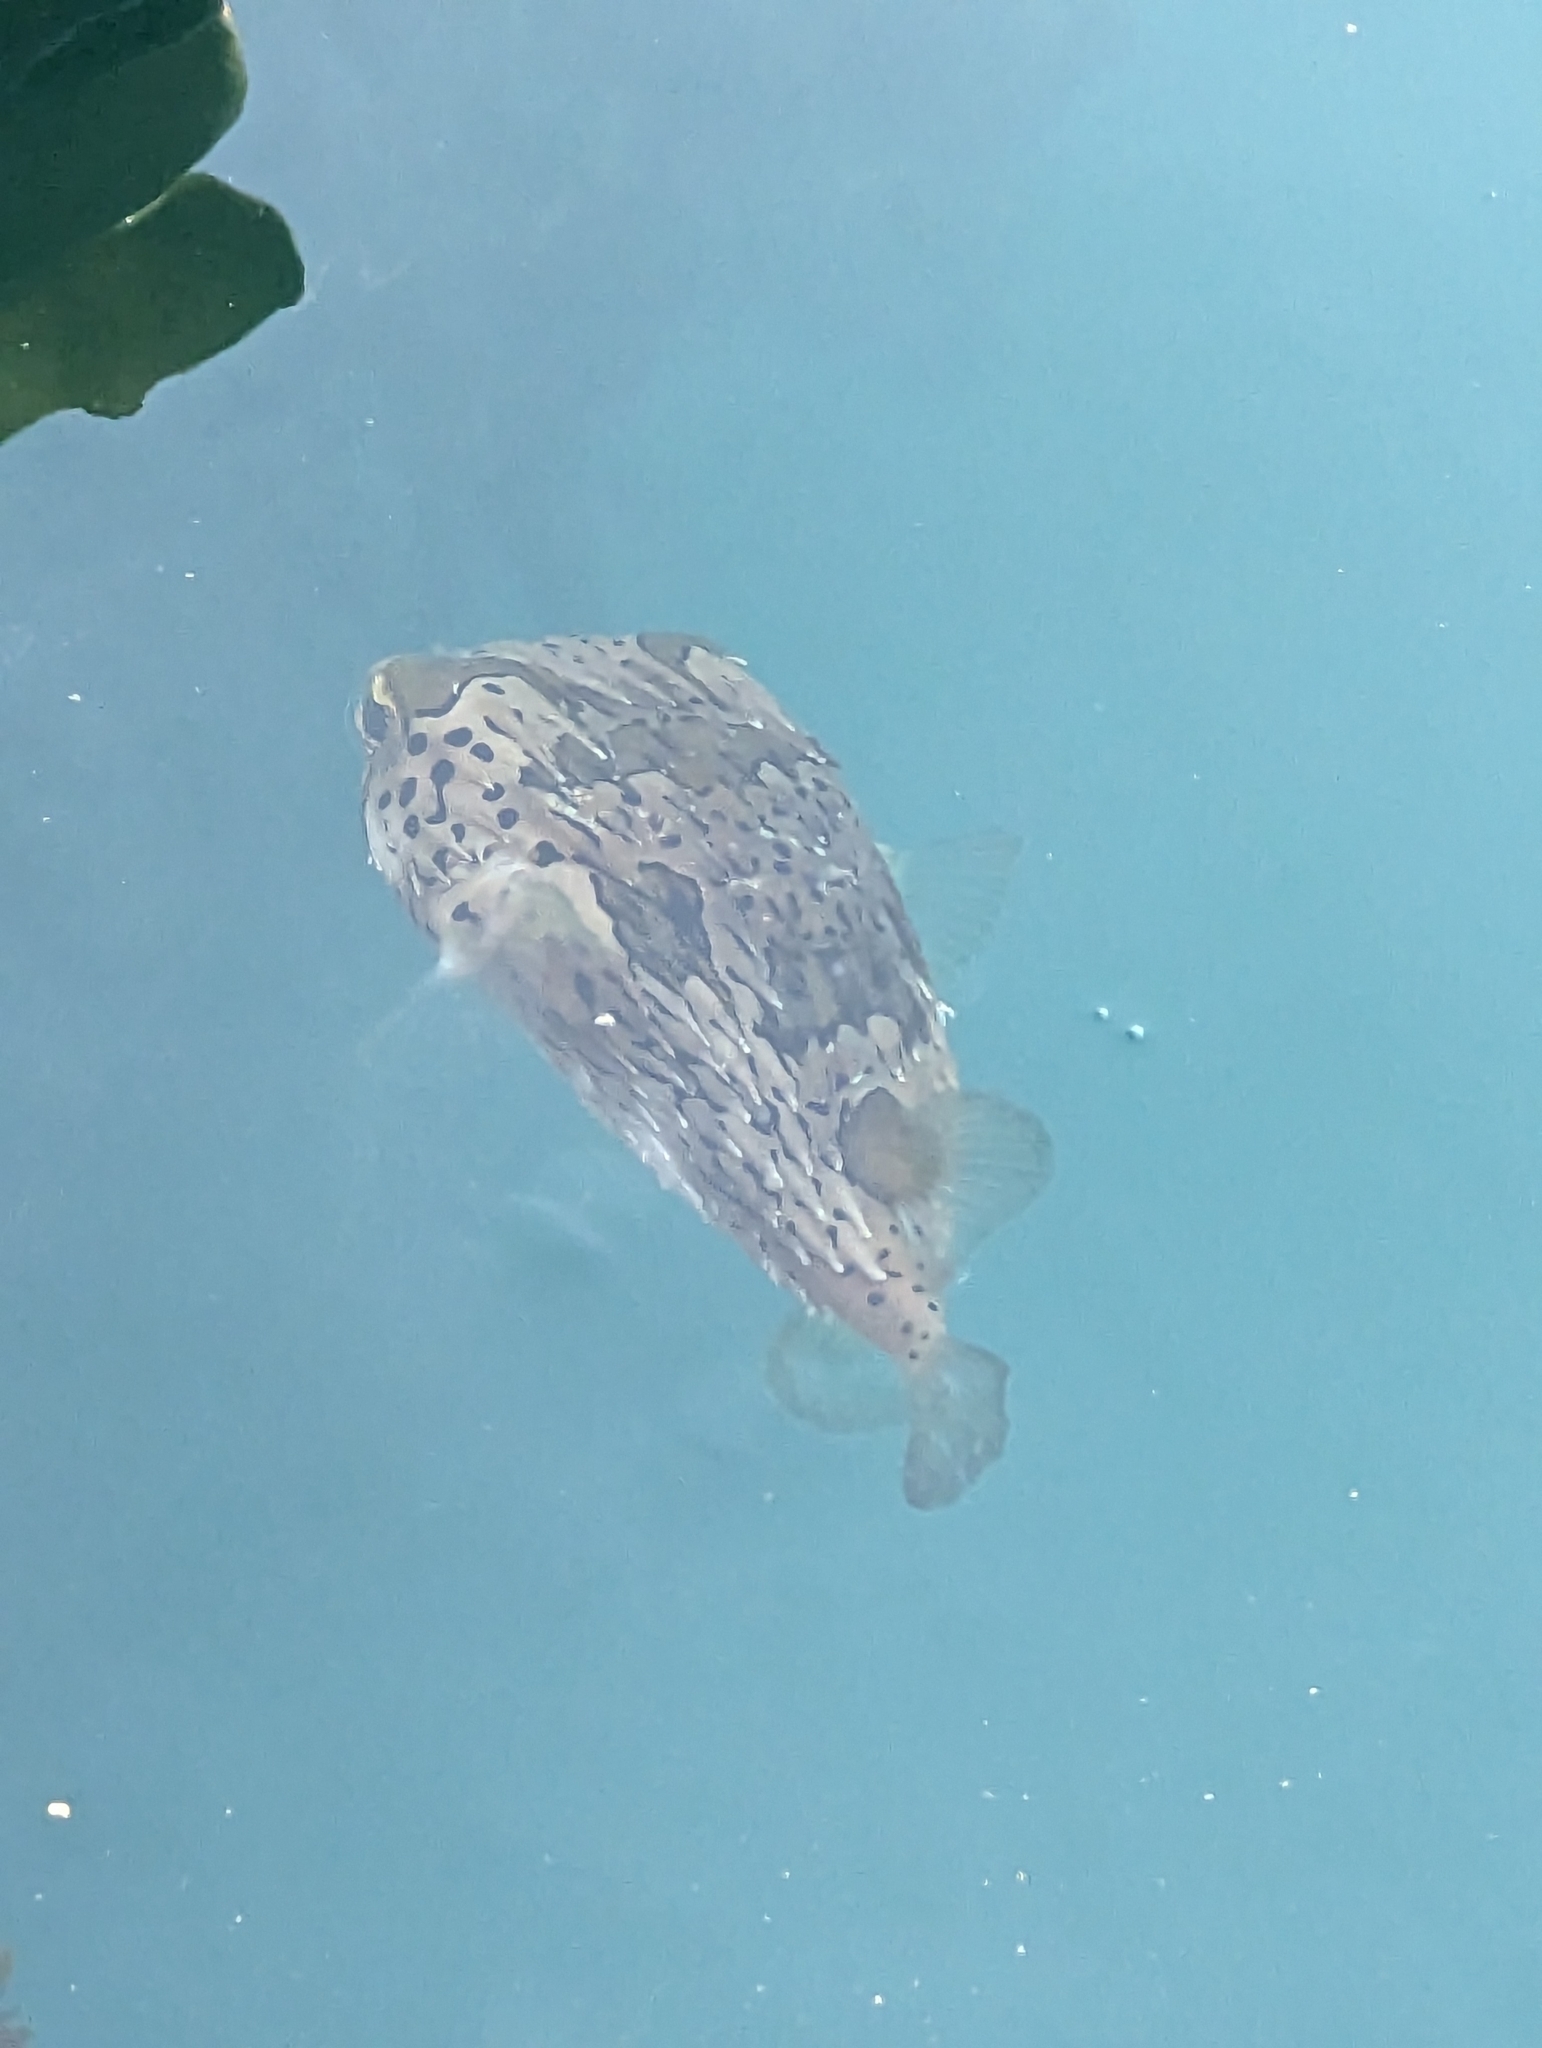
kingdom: Animalia
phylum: Chordata
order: Tetraodontiformes
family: Diodontidae
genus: Diodon
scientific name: Diodon holocanthus
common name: Balloonfish
